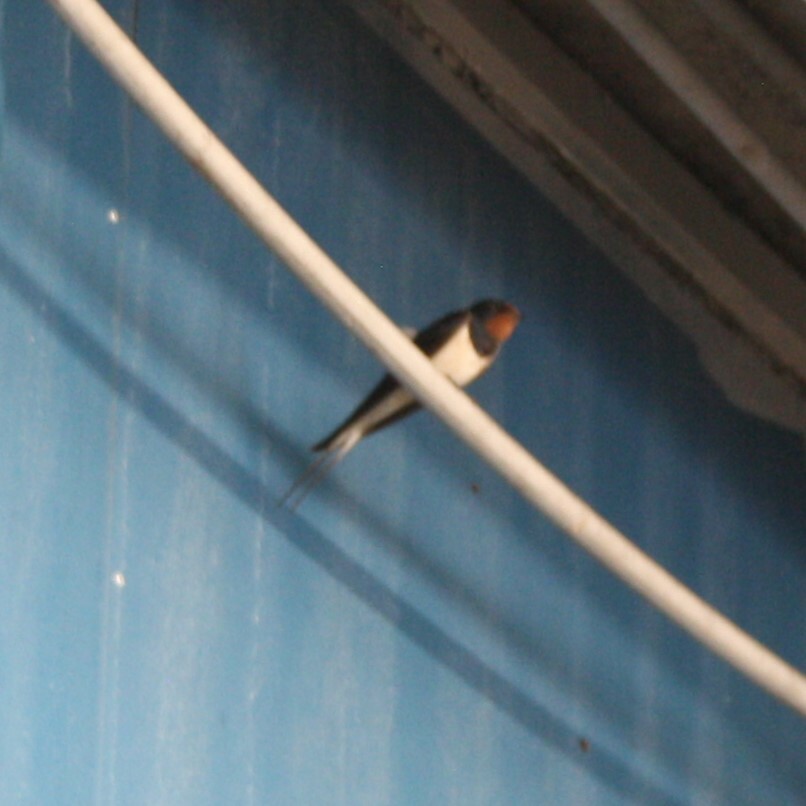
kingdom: Animalia
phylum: Chordata
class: Aves
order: Passeriformes
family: Hirundinidae
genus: Hirundo
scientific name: Hirundo rustica
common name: Barn swallow
